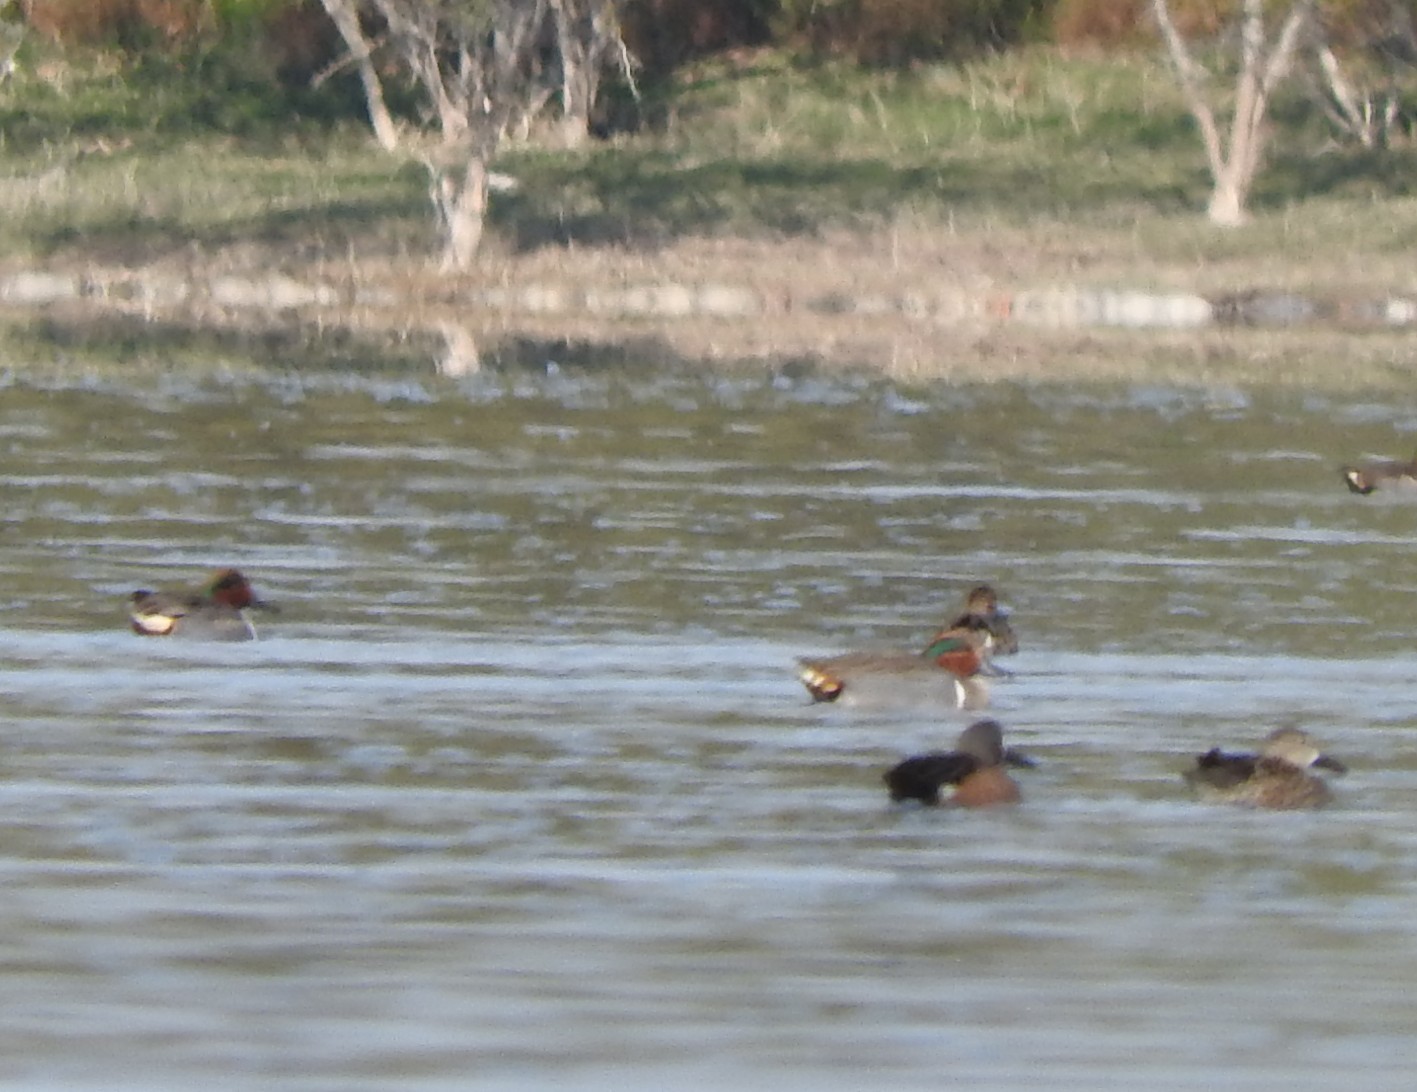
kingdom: Animalia
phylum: Chordata
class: Aves
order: Anseriformes
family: Anatidae
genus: Anas
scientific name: Anas carolinensis
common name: Green-winged teal
